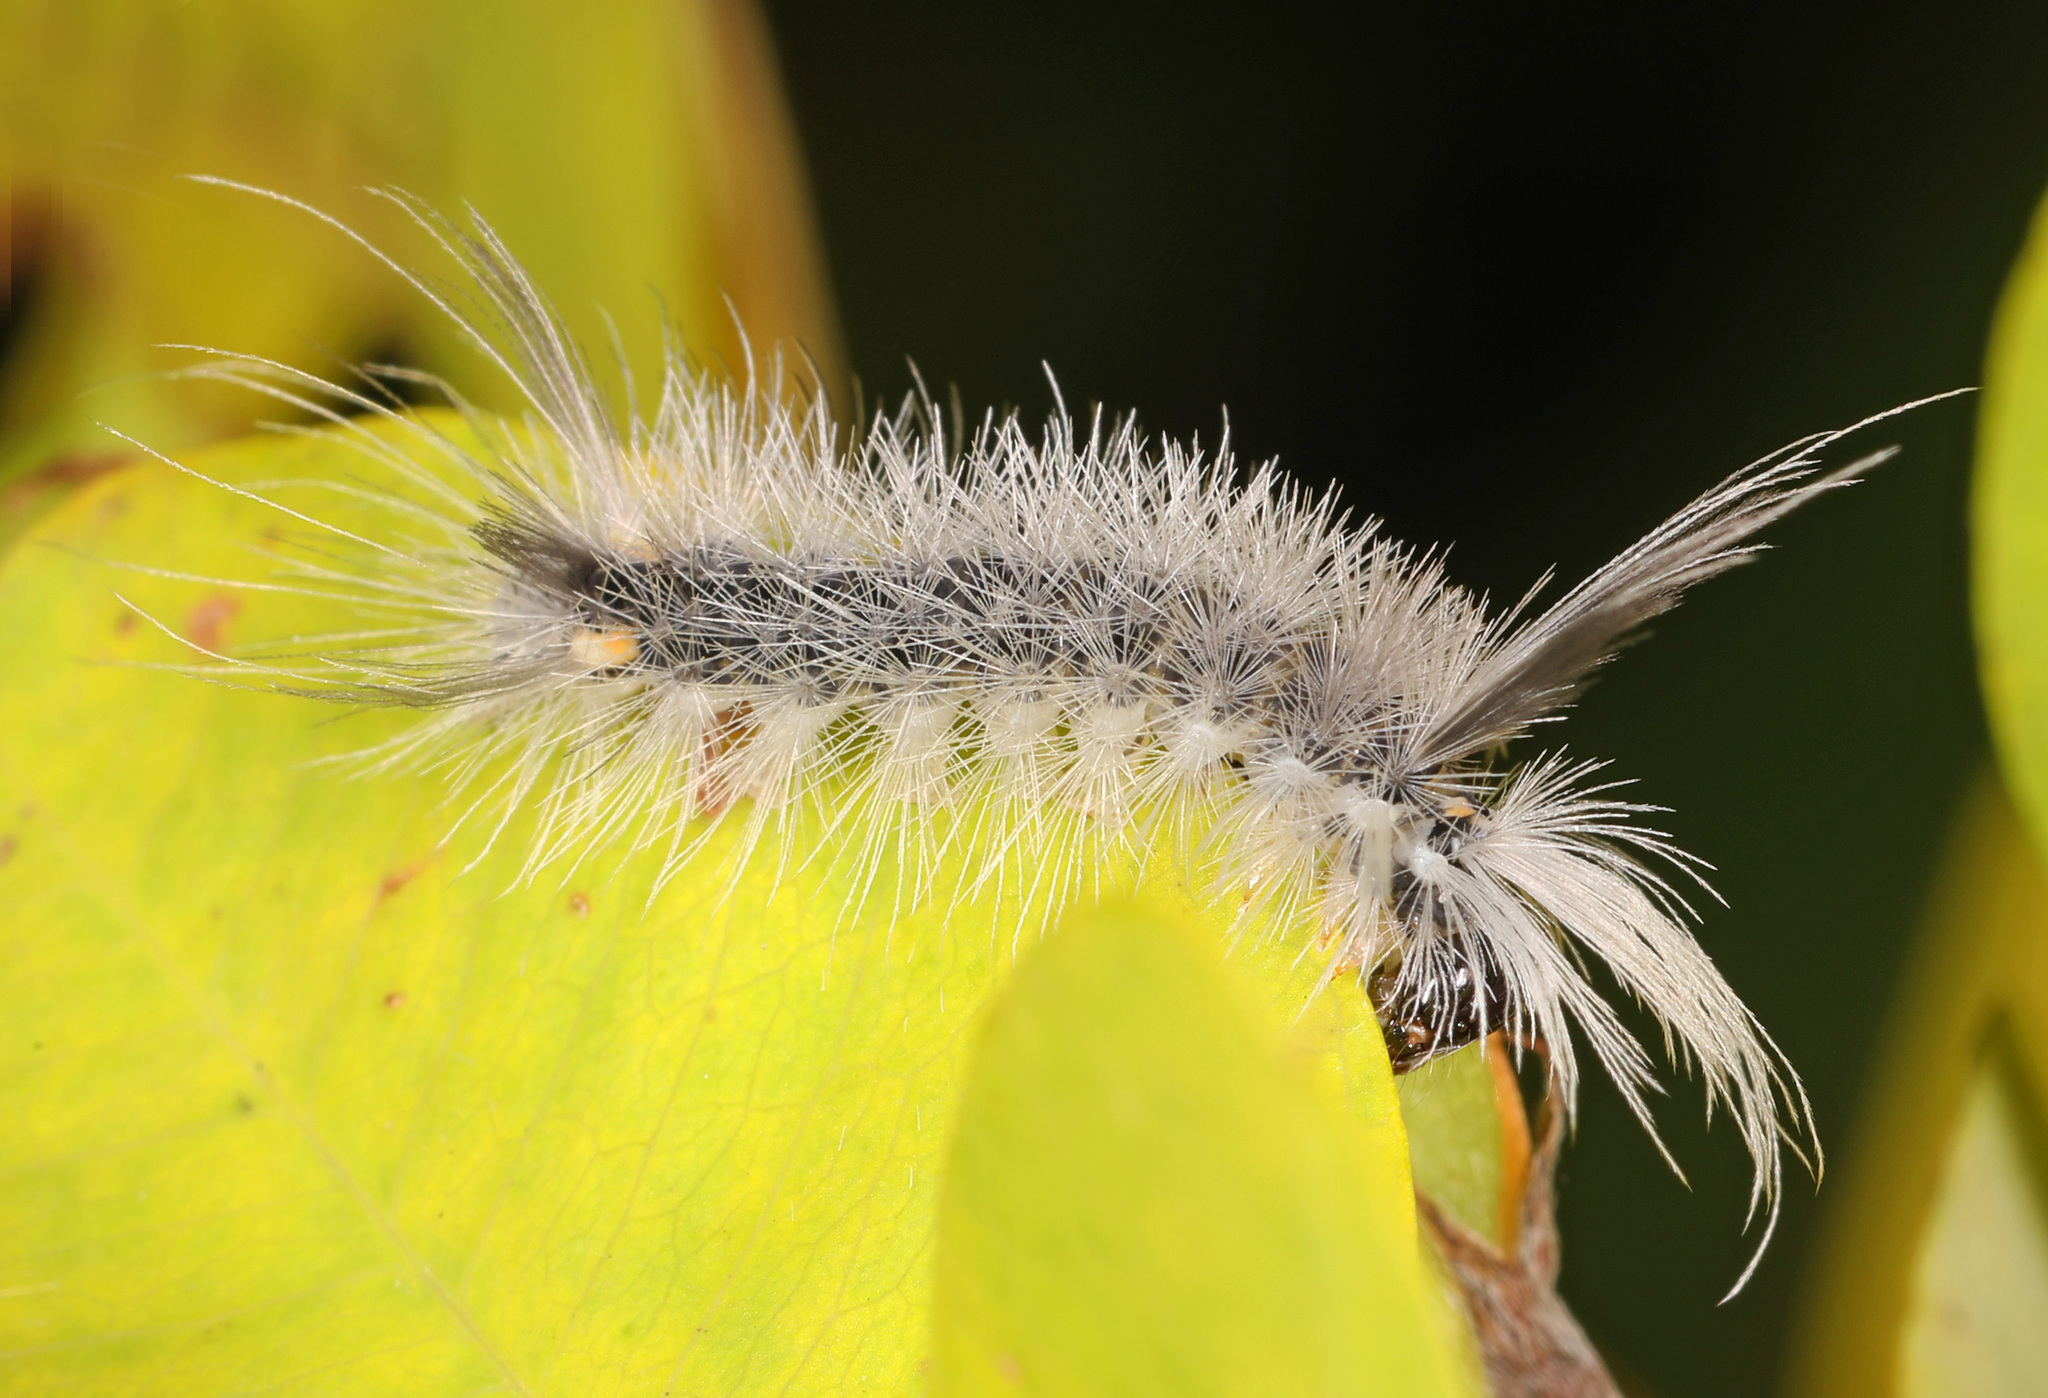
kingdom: Animalia
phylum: Arthropoda
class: Insecta
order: Lepidoptera
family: Erebidae
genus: Halysidota
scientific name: Halysidota tessellaris
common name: Banded tussock moth
